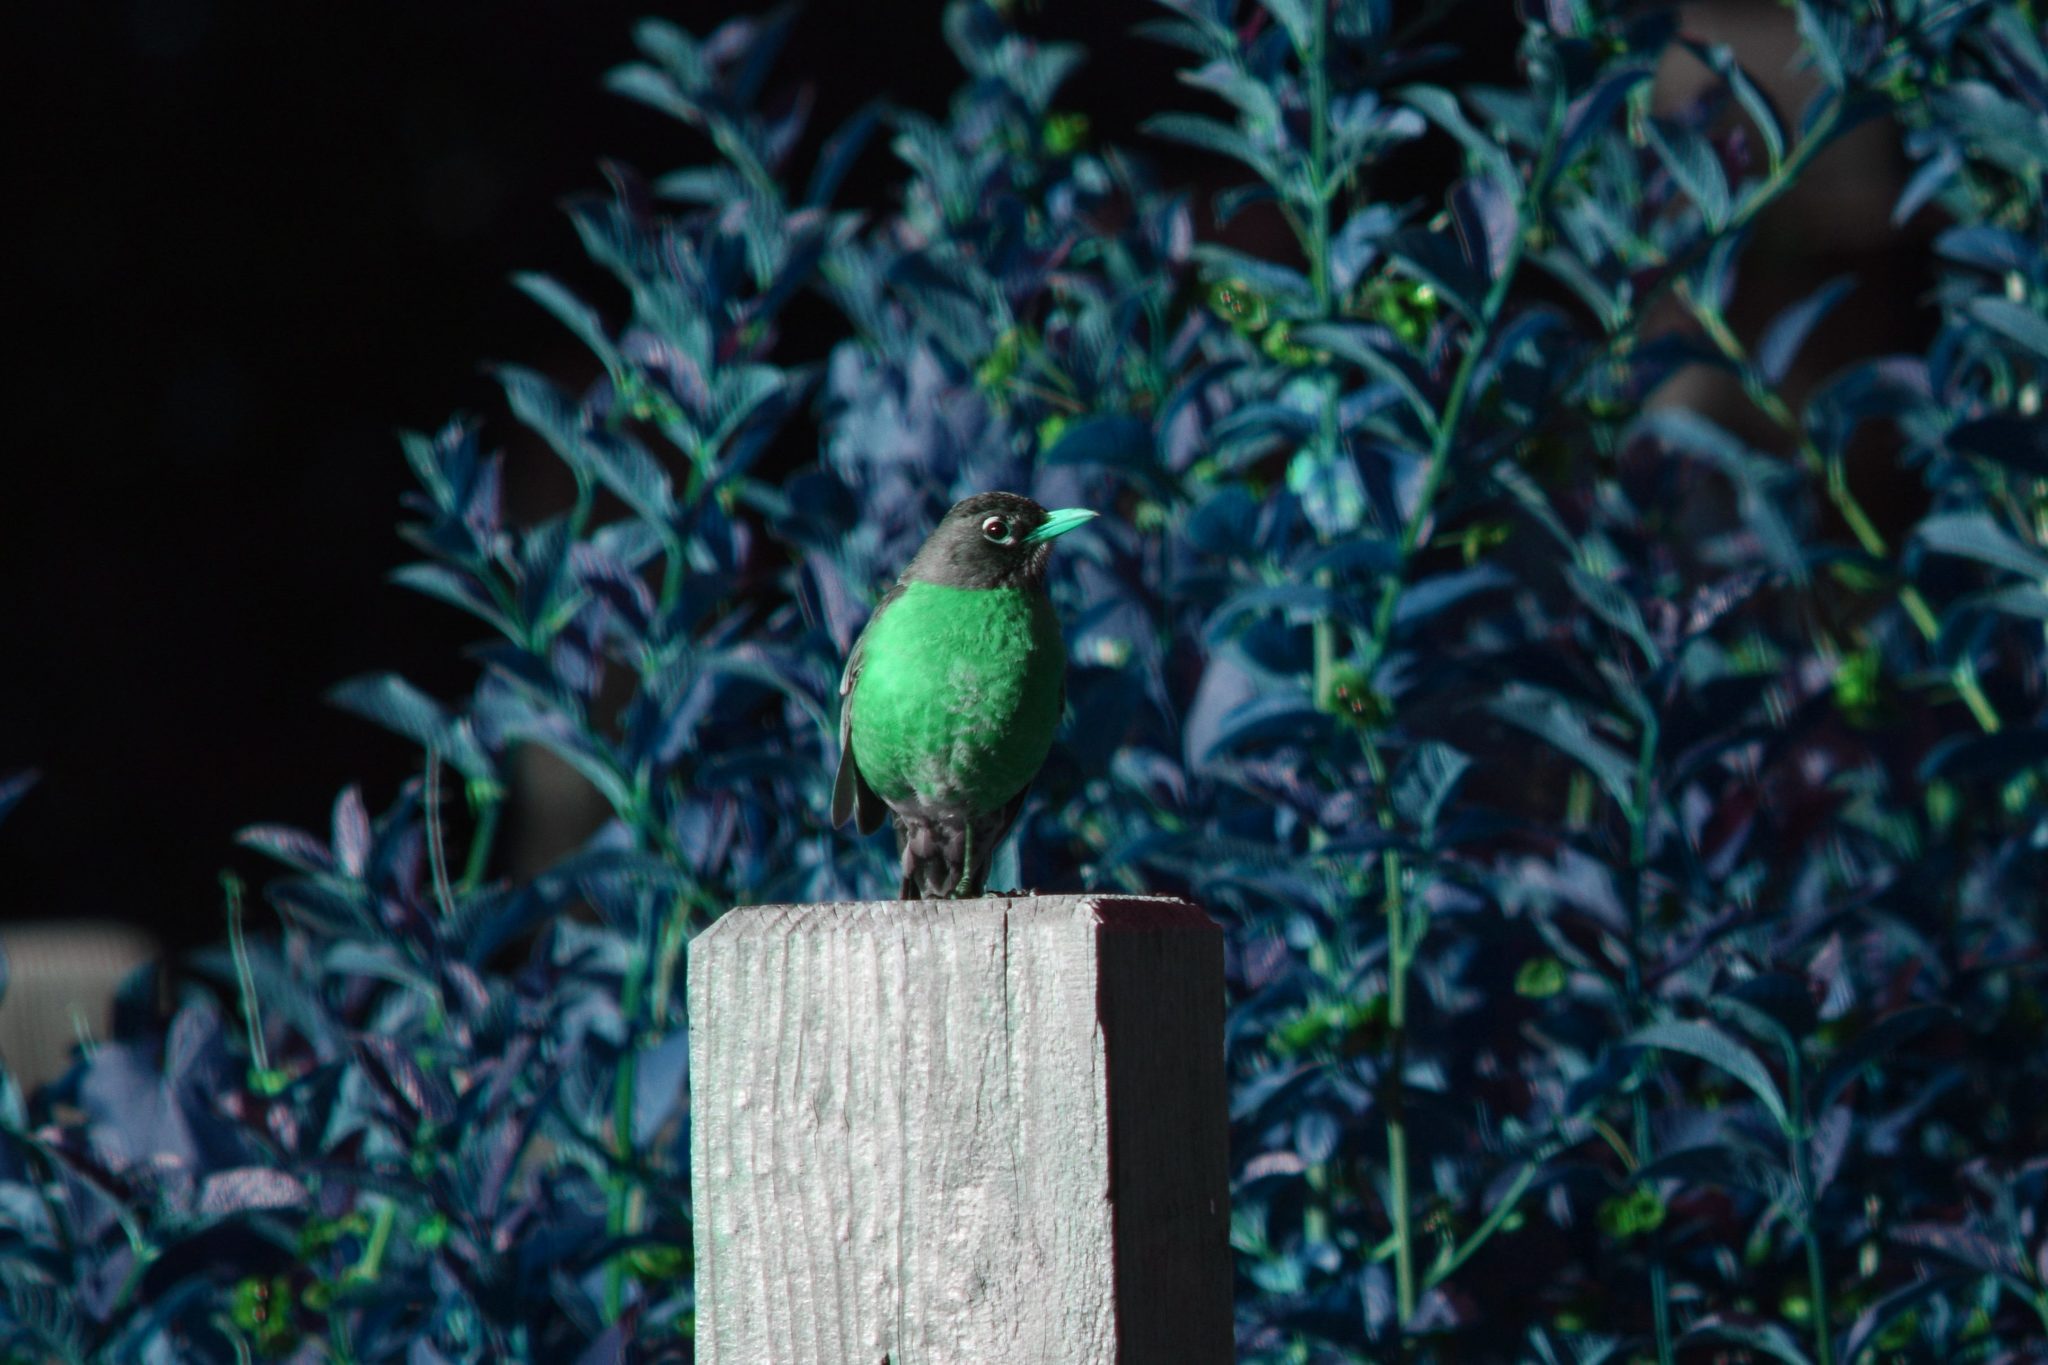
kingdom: Animalia
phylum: Chordata
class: Aves
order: Passeriformes
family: Turdidae
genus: Turdus
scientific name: Turdus migratorius
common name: American robin
